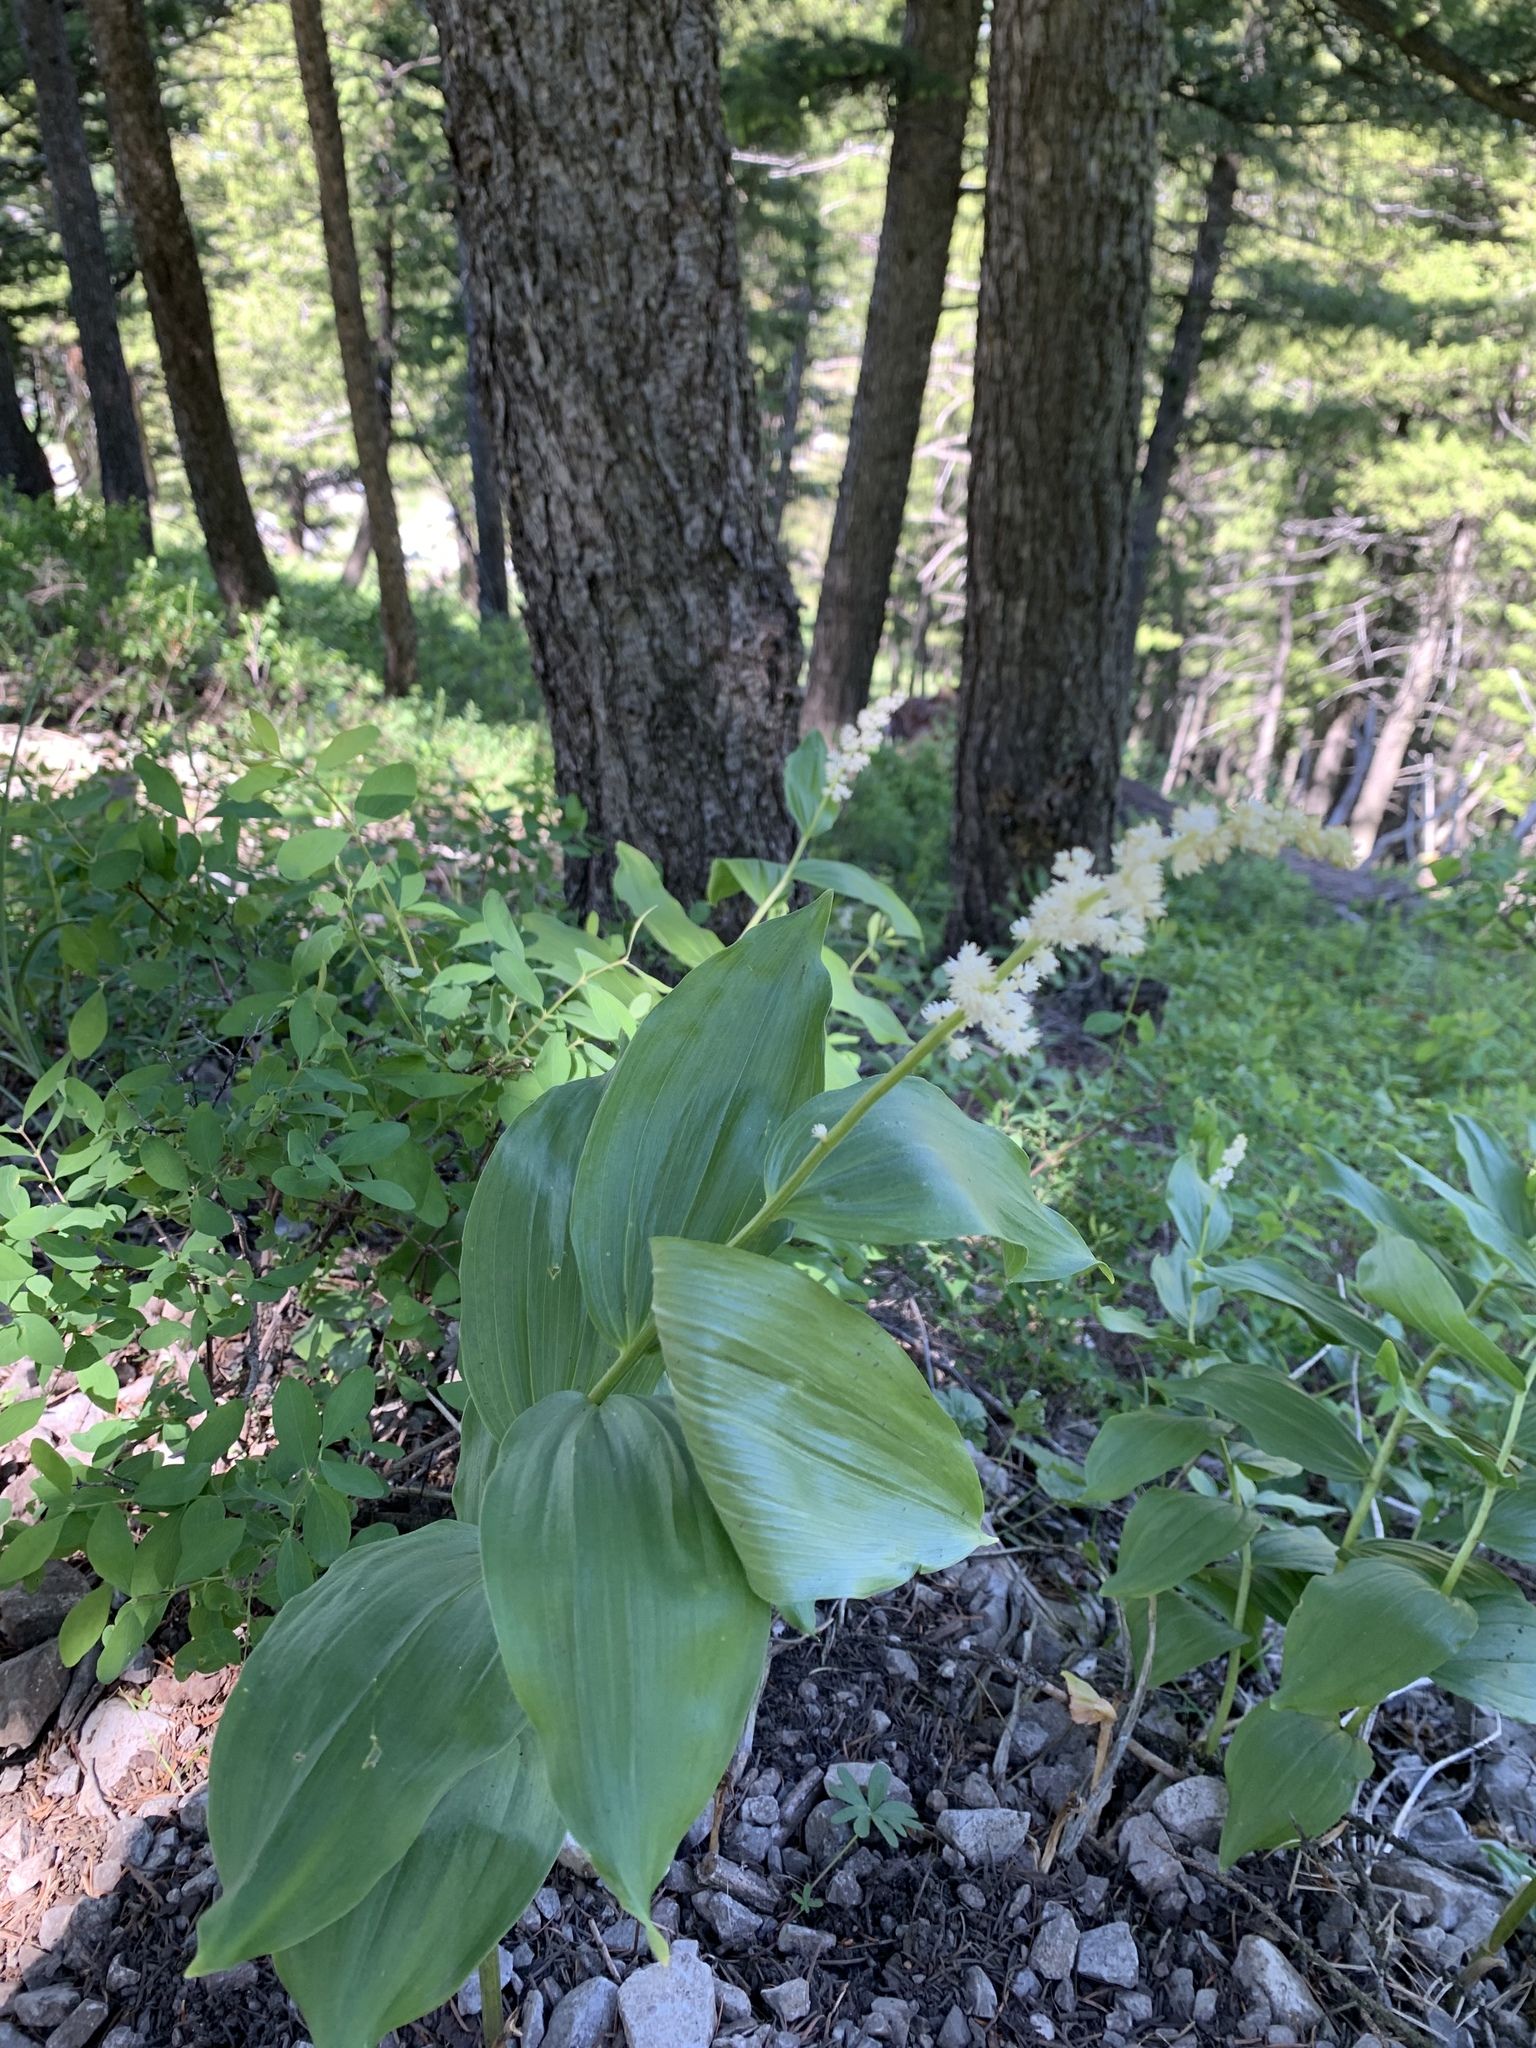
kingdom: Plantae
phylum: Tracheophyta
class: Liliopsida
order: Asparagales
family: Asparagaceae
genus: Maianthemum
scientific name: Maianthemum racemosum
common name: False spikenard
